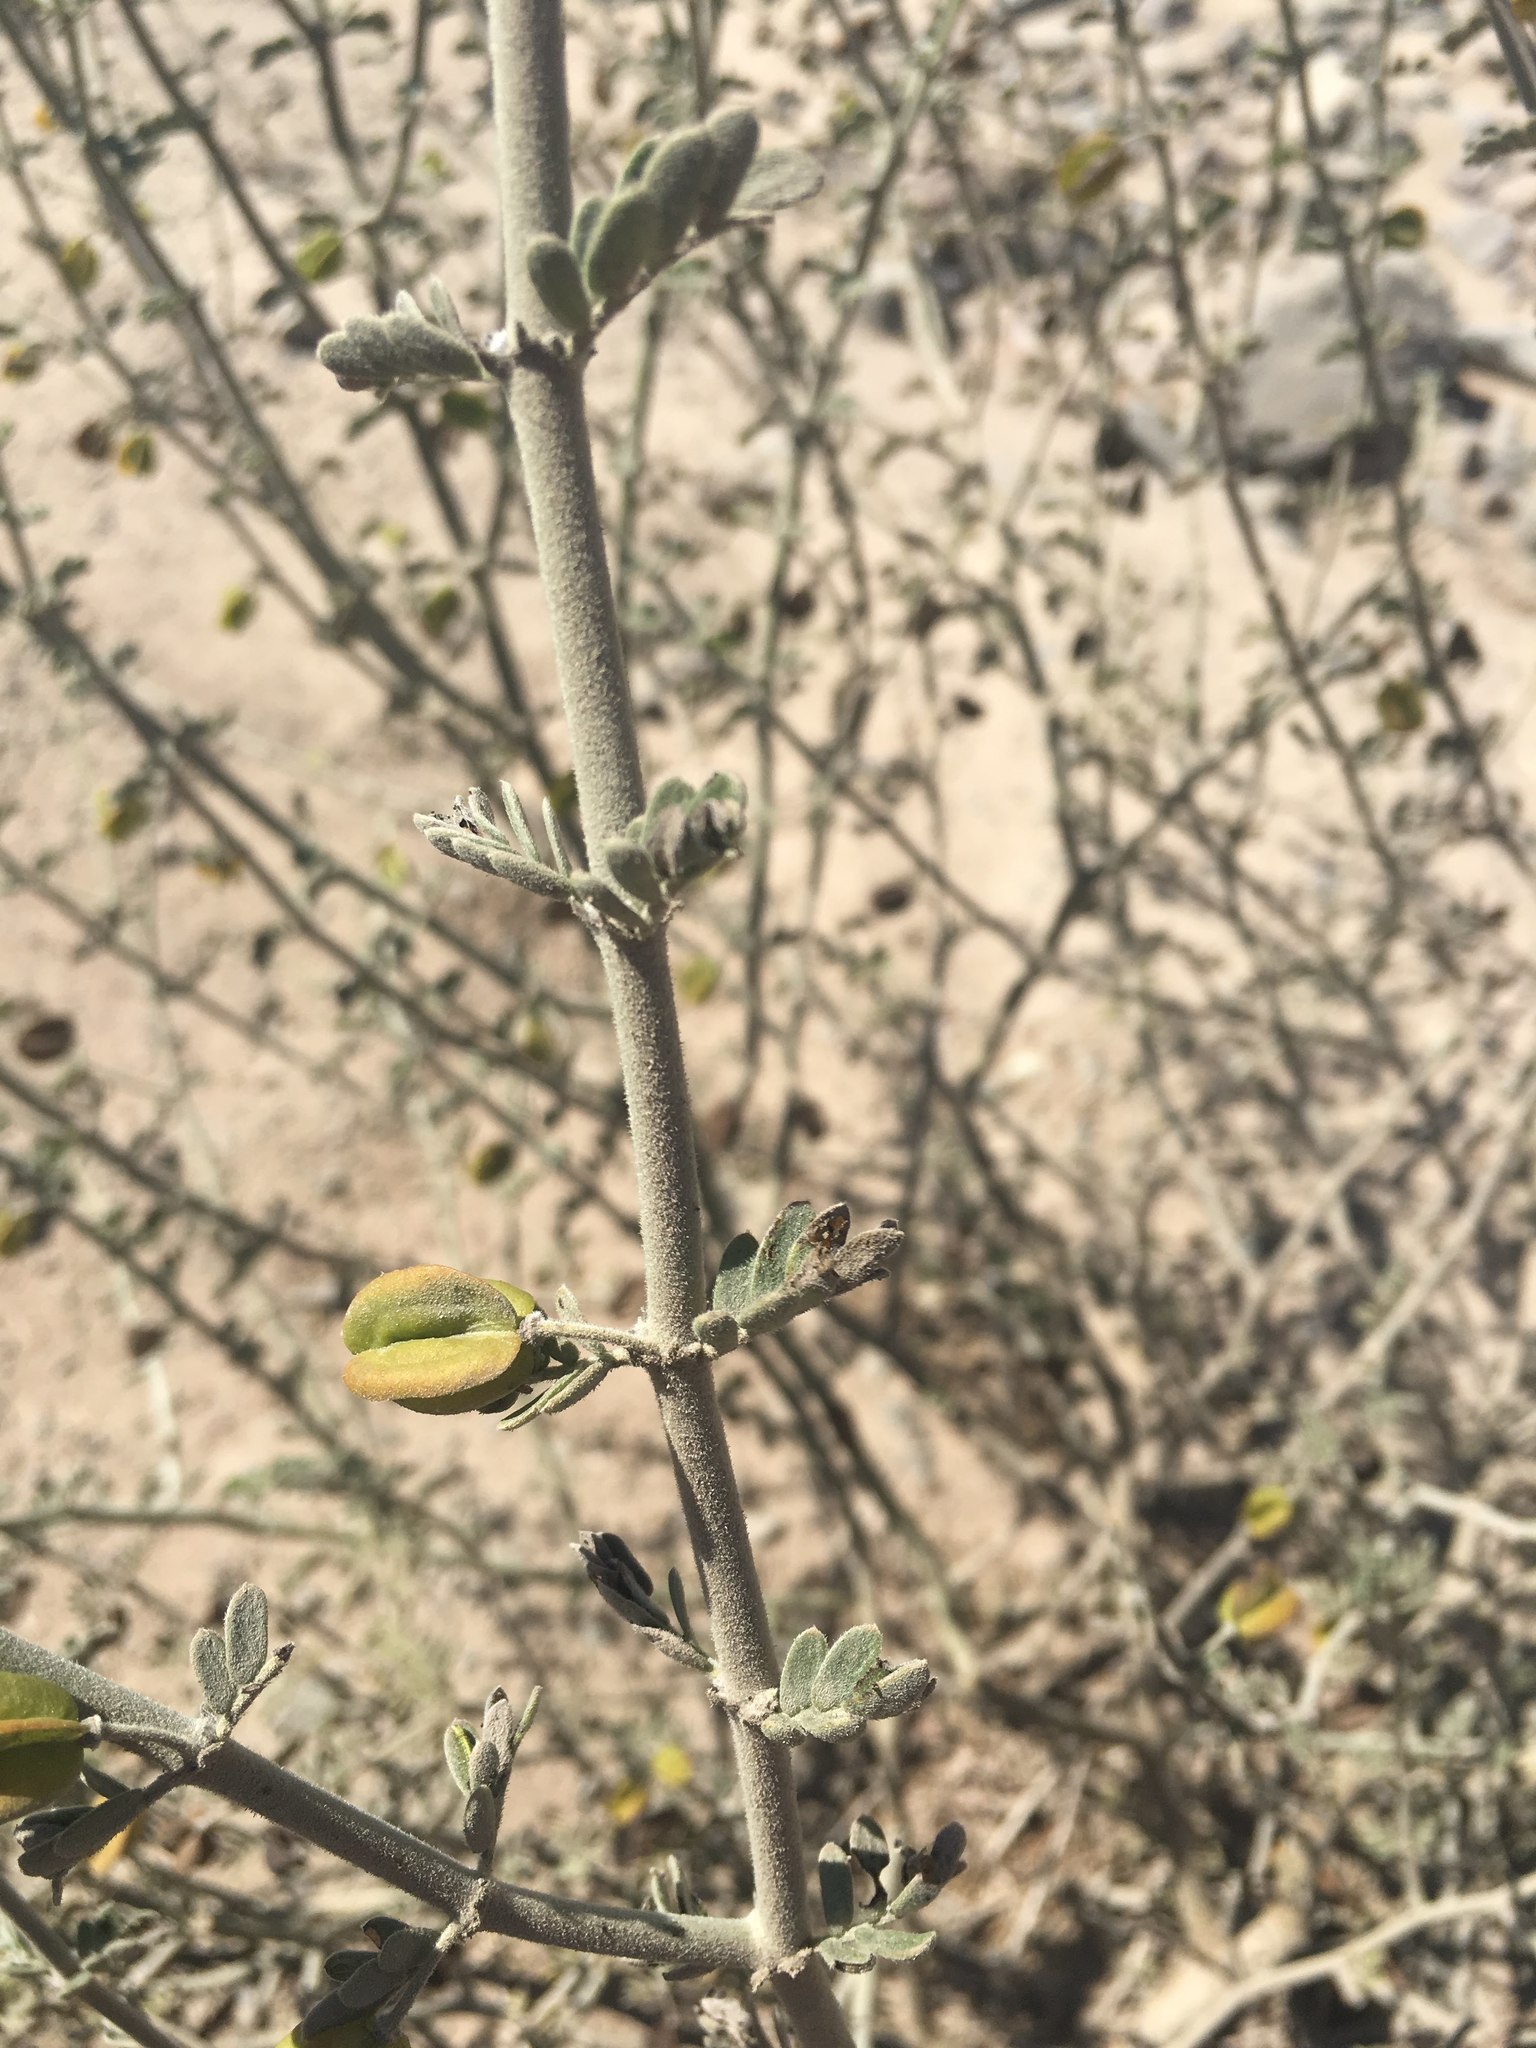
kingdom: Plantae
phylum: Tracheophyta
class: Magnoliopsida
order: Zygophyllales
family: Zygophyllaceae
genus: Bulnesia
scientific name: Bulnesia chilensis
